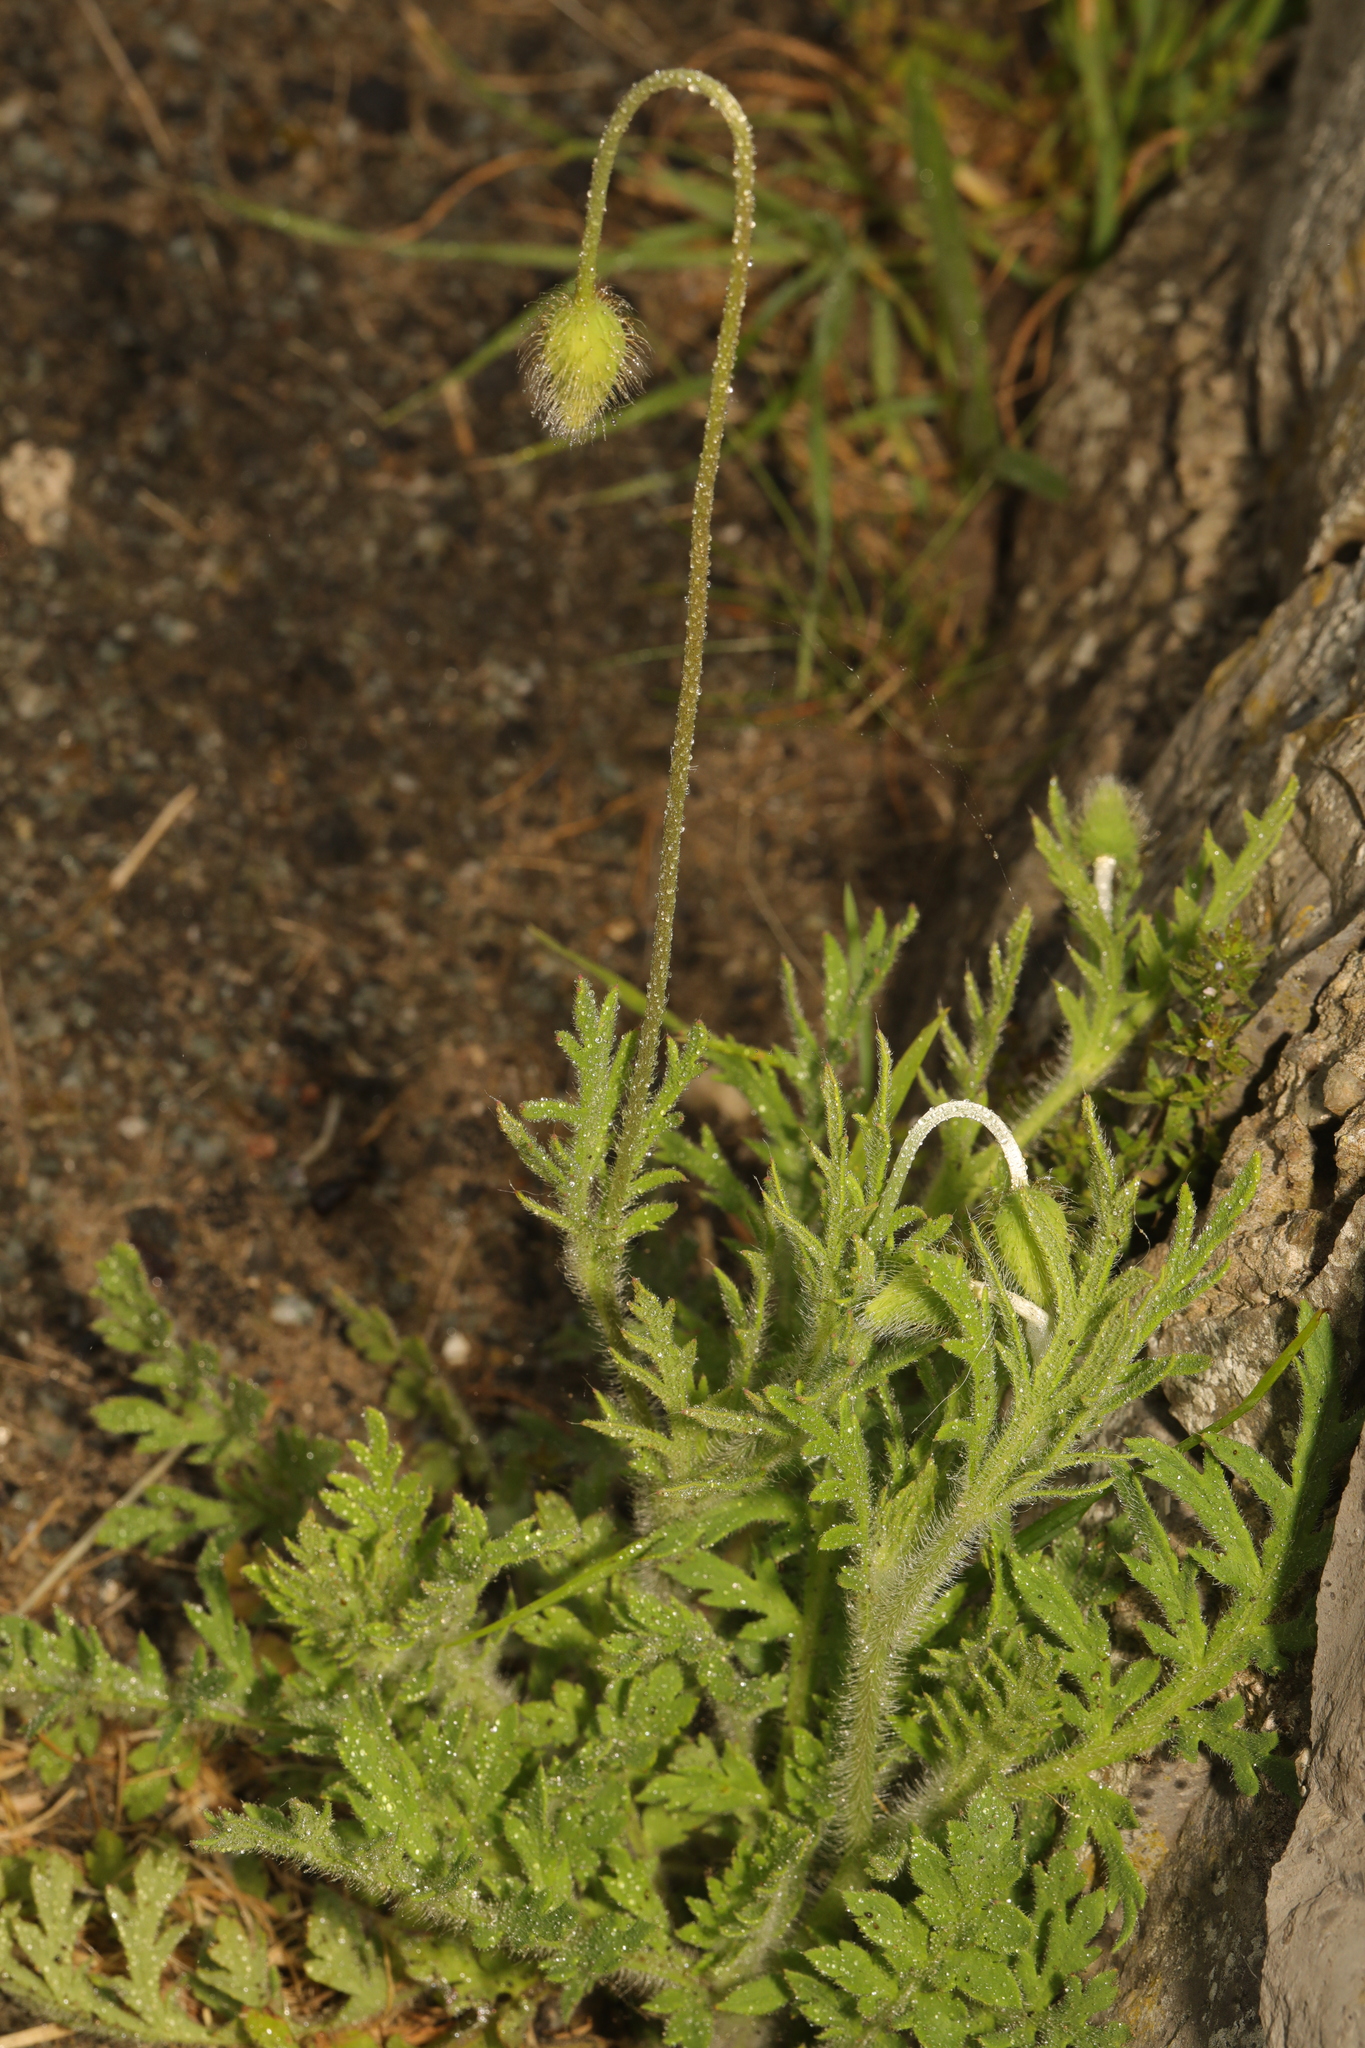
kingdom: Plantae
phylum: Tracheophyta
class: Magnoliopsida
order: Ranunculales
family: Papaveraceae
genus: Papaver
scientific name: Papaver dubium
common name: Long-headed poppy
